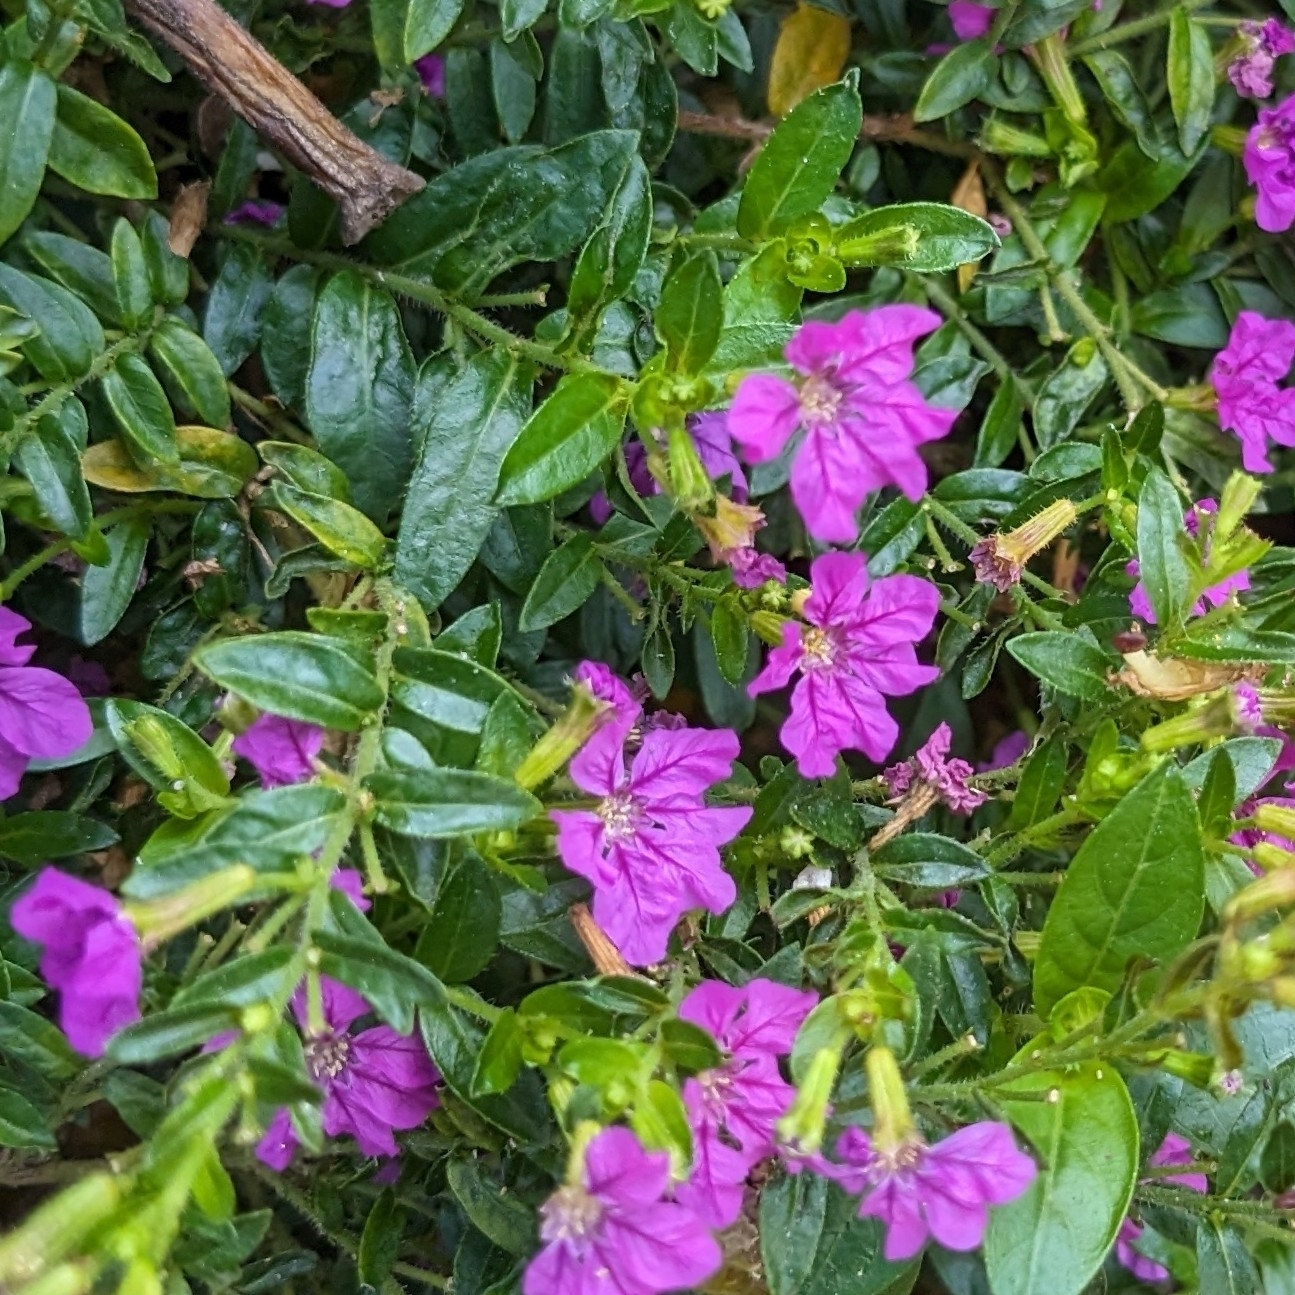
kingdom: Plantae
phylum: Tracheophyta
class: Magnoliopsida
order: Myrtales
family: Lythraceae
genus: Cuphea
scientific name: Cuphea hyssopifolia
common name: False heather
